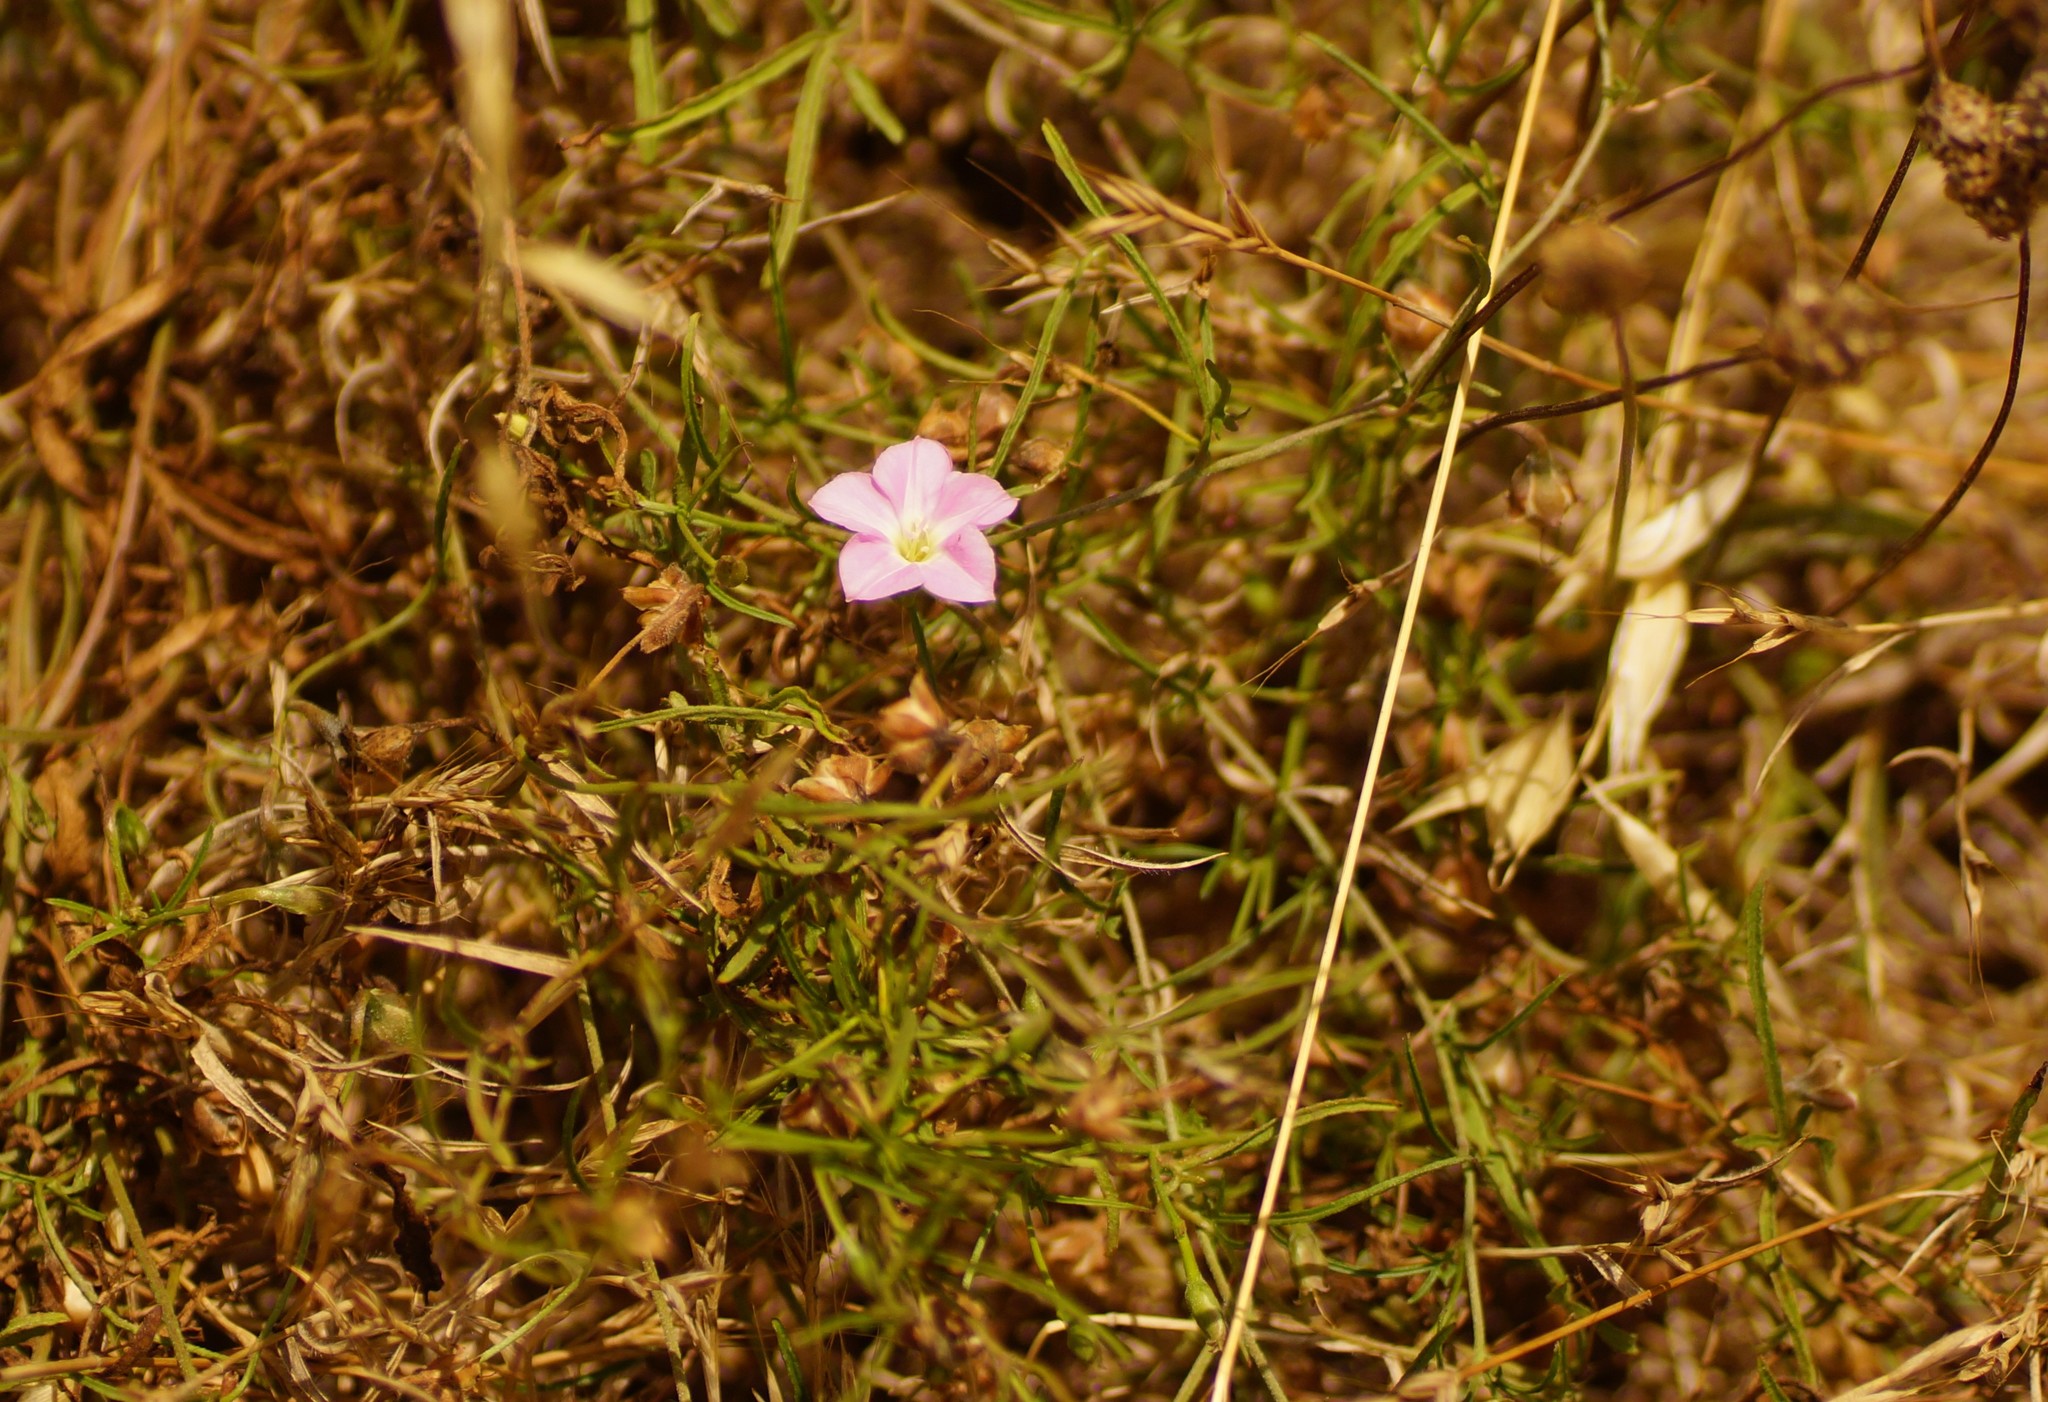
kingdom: Plantae
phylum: Tracheophyta
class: Magnoliopsida
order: Solanales
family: Convolvulaceae
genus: Convolvulus
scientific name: Convolvulus angustissimus
